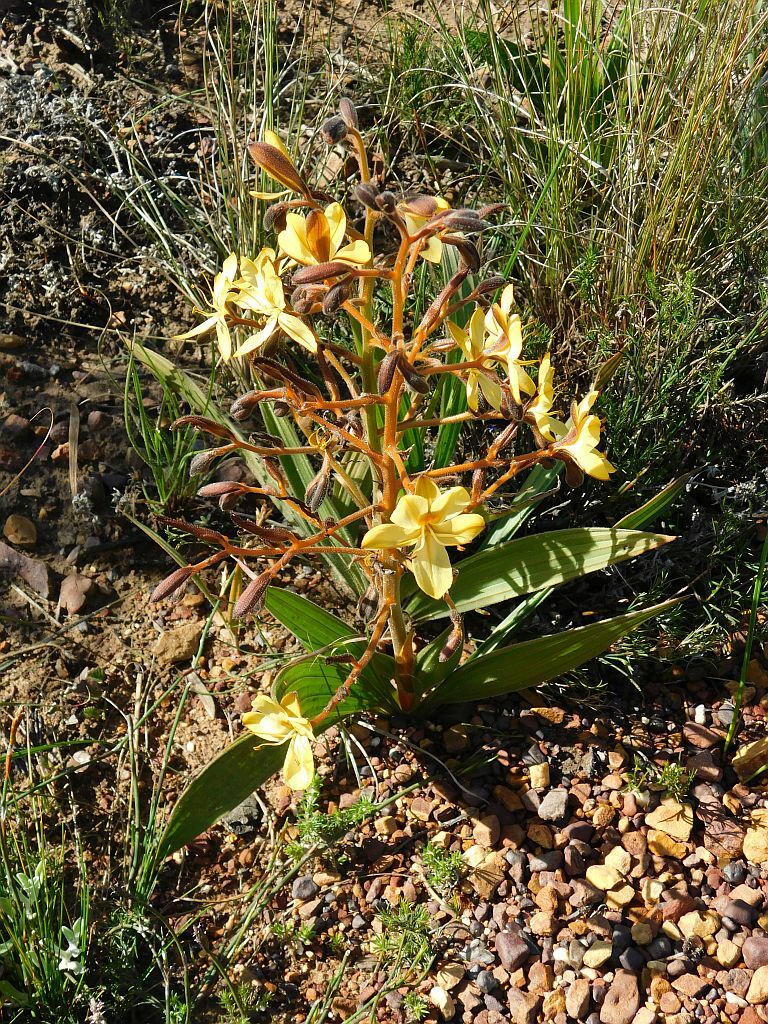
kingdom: Plantae
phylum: Tracheophyta
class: Liliopsida
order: Commelinales
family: Haemodoraceae
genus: Wachendorfia
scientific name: Wachendorfia paniculata
